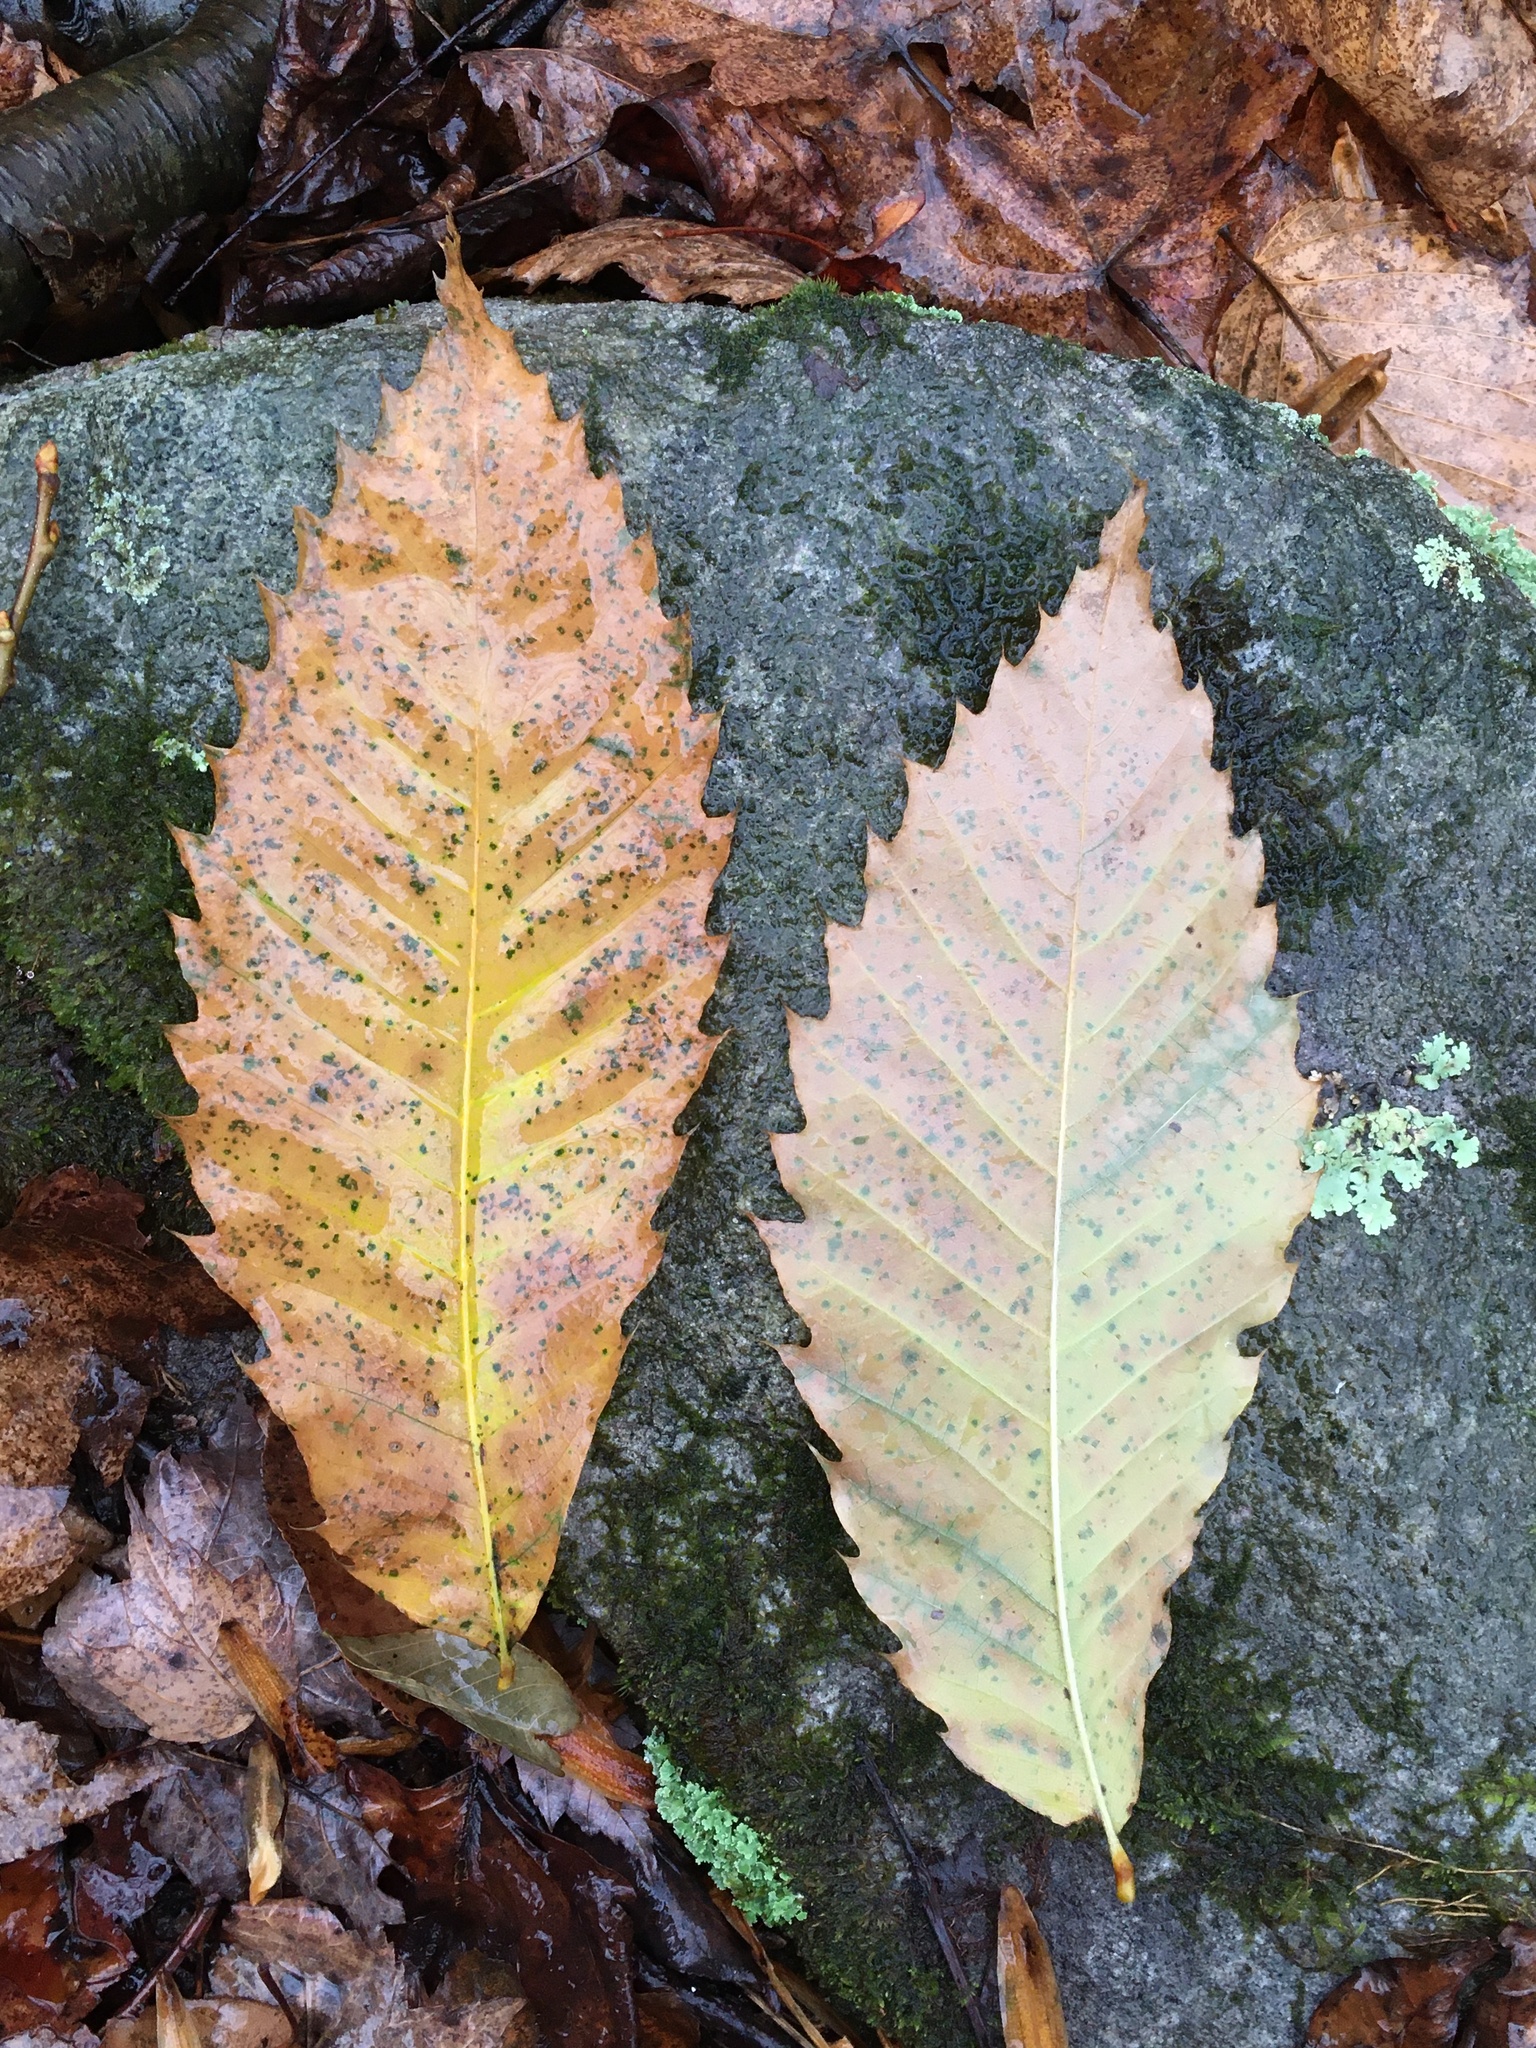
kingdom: Plantae
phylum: Tracheophyta
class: Magnoliopsida
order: Fagales
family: Fagaceae
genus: Castanea
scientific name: Castanea dentata
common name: American chestnut
